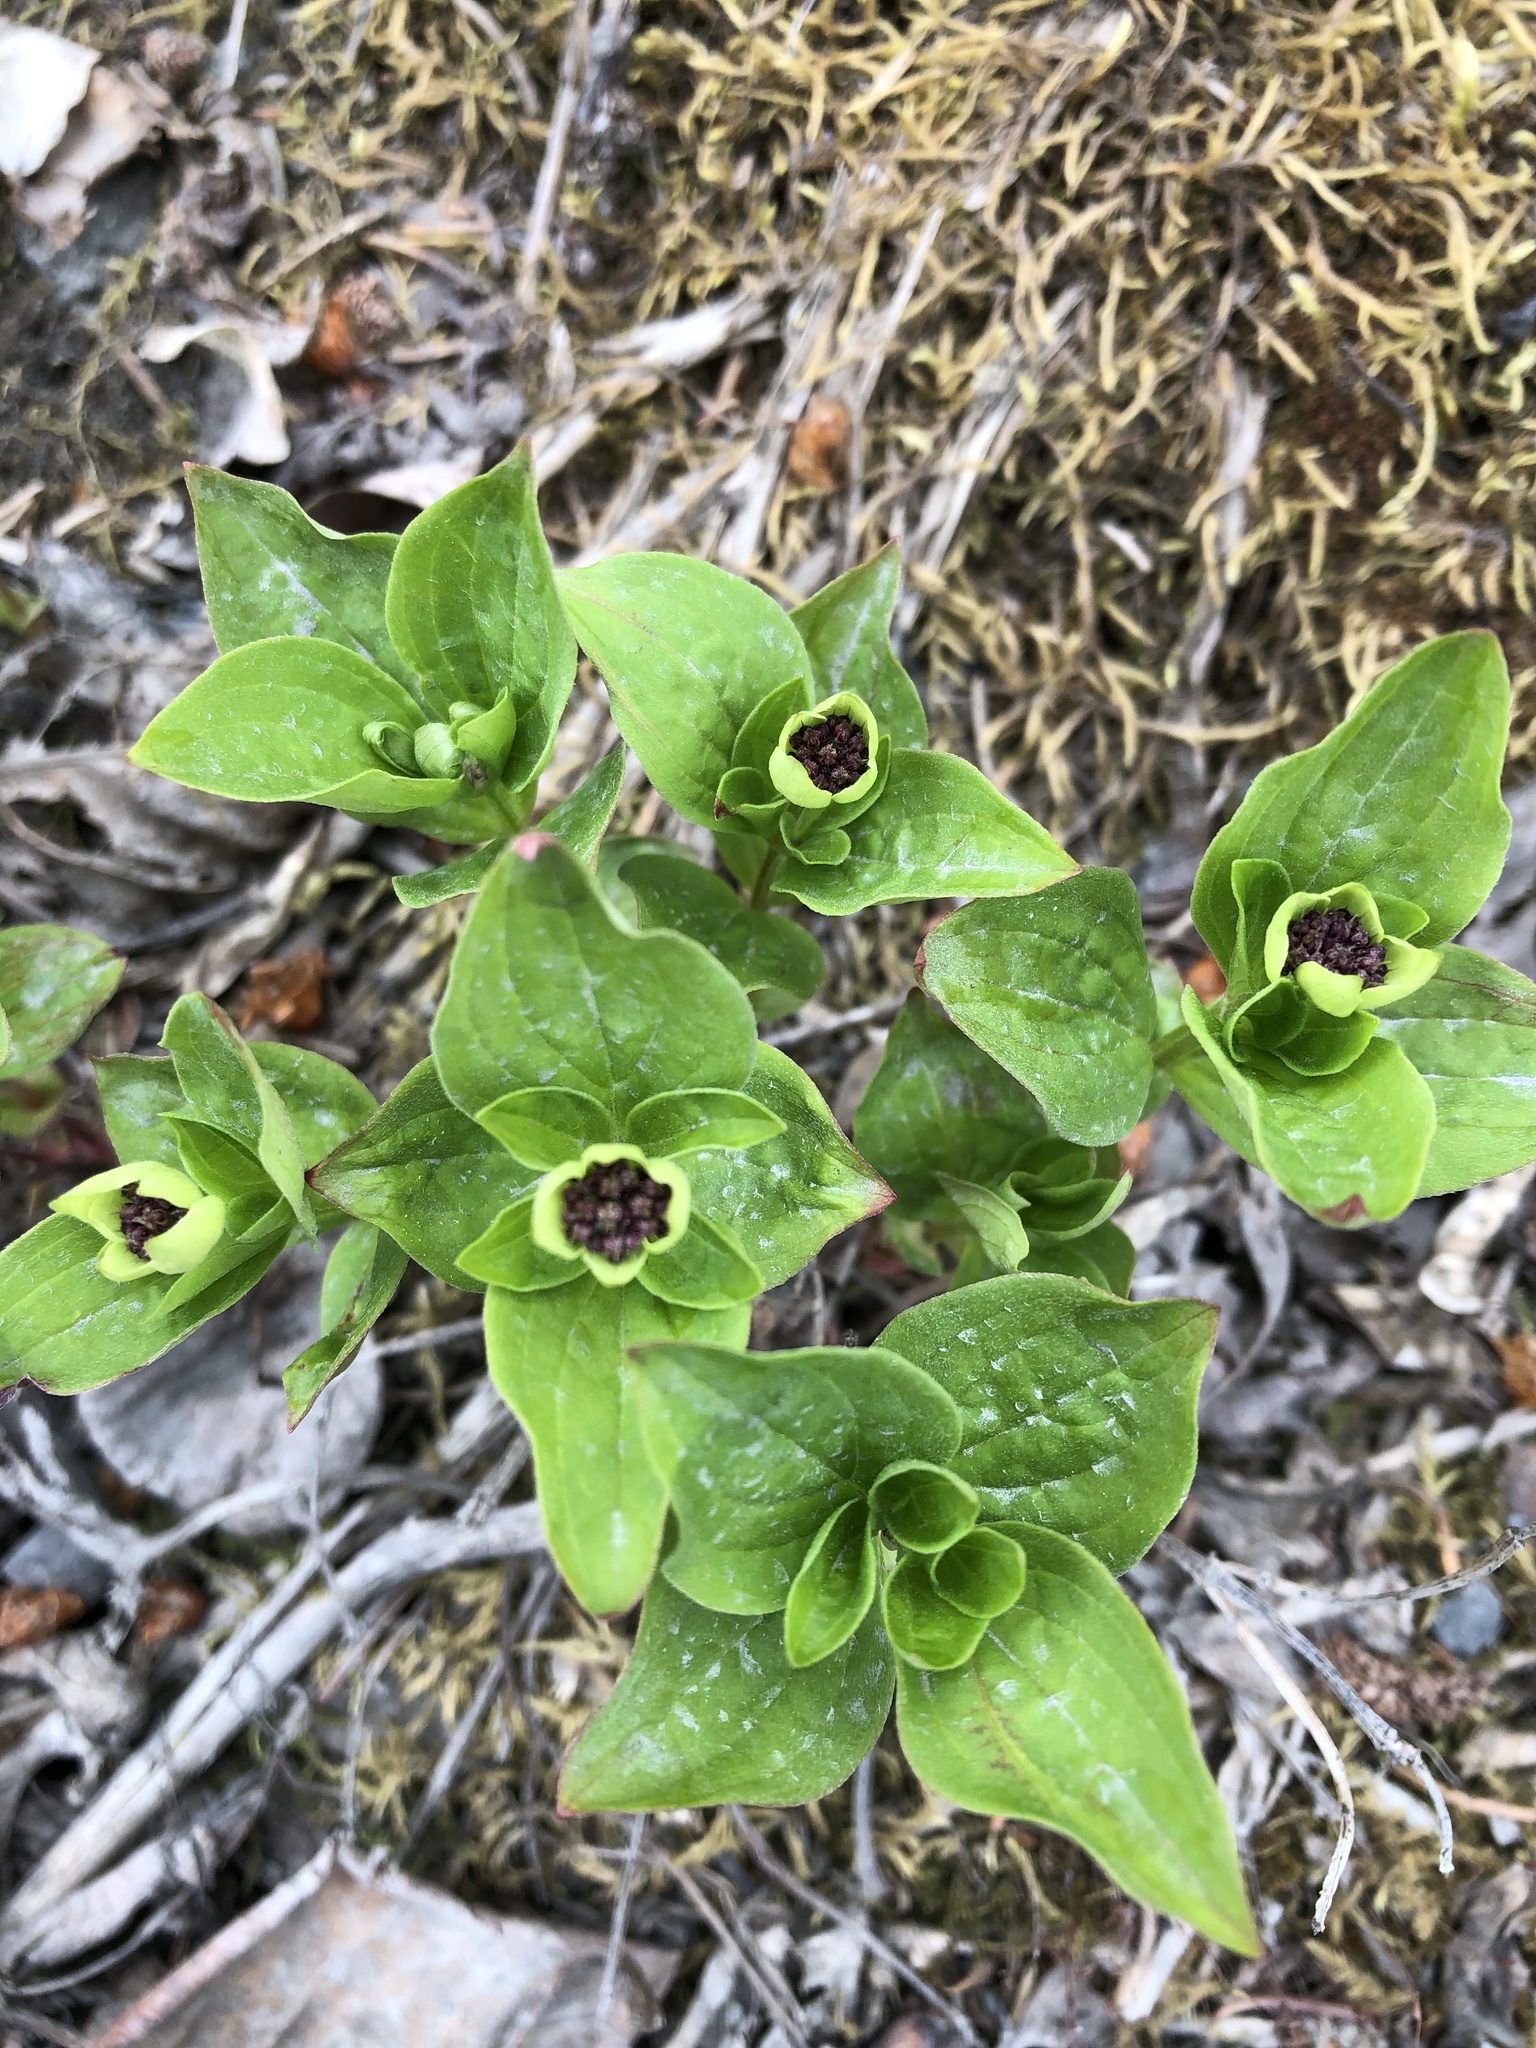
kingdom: Plantae
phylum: Tracheophyta
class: Magnoliopsida
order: Cornales
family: Cornaceae
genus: Cornus
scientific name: Cornus suecica
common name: Dwarf cornel
